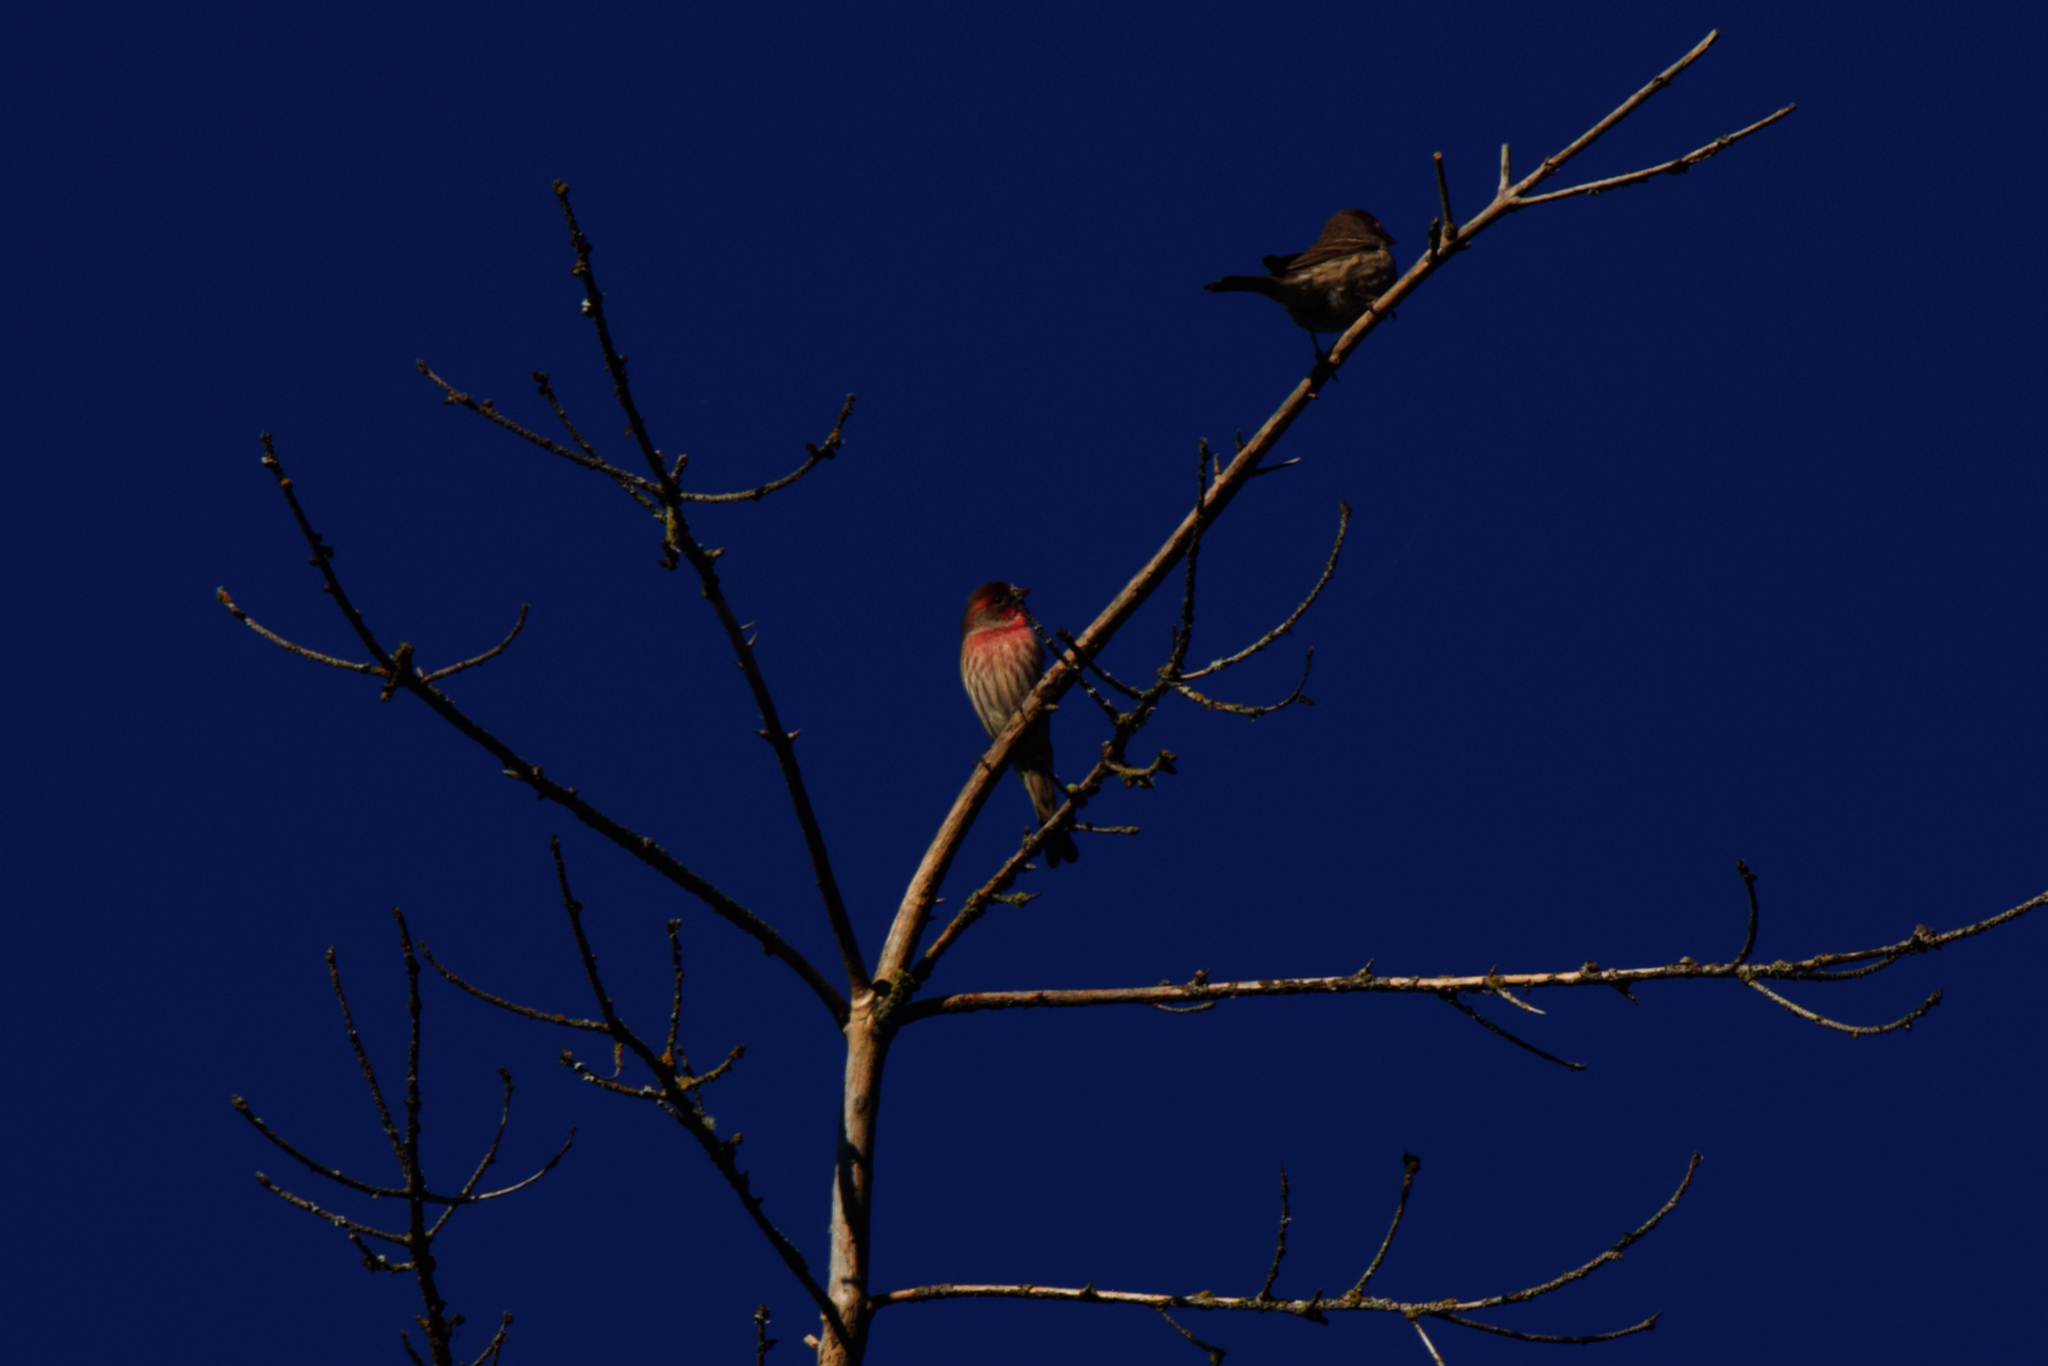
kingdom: Animalia
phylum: Chordata
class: Aves
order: Passeriformes
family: Fringillidae
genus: Haemorhous
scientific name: Haemorhous mexicanus
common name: House finch
